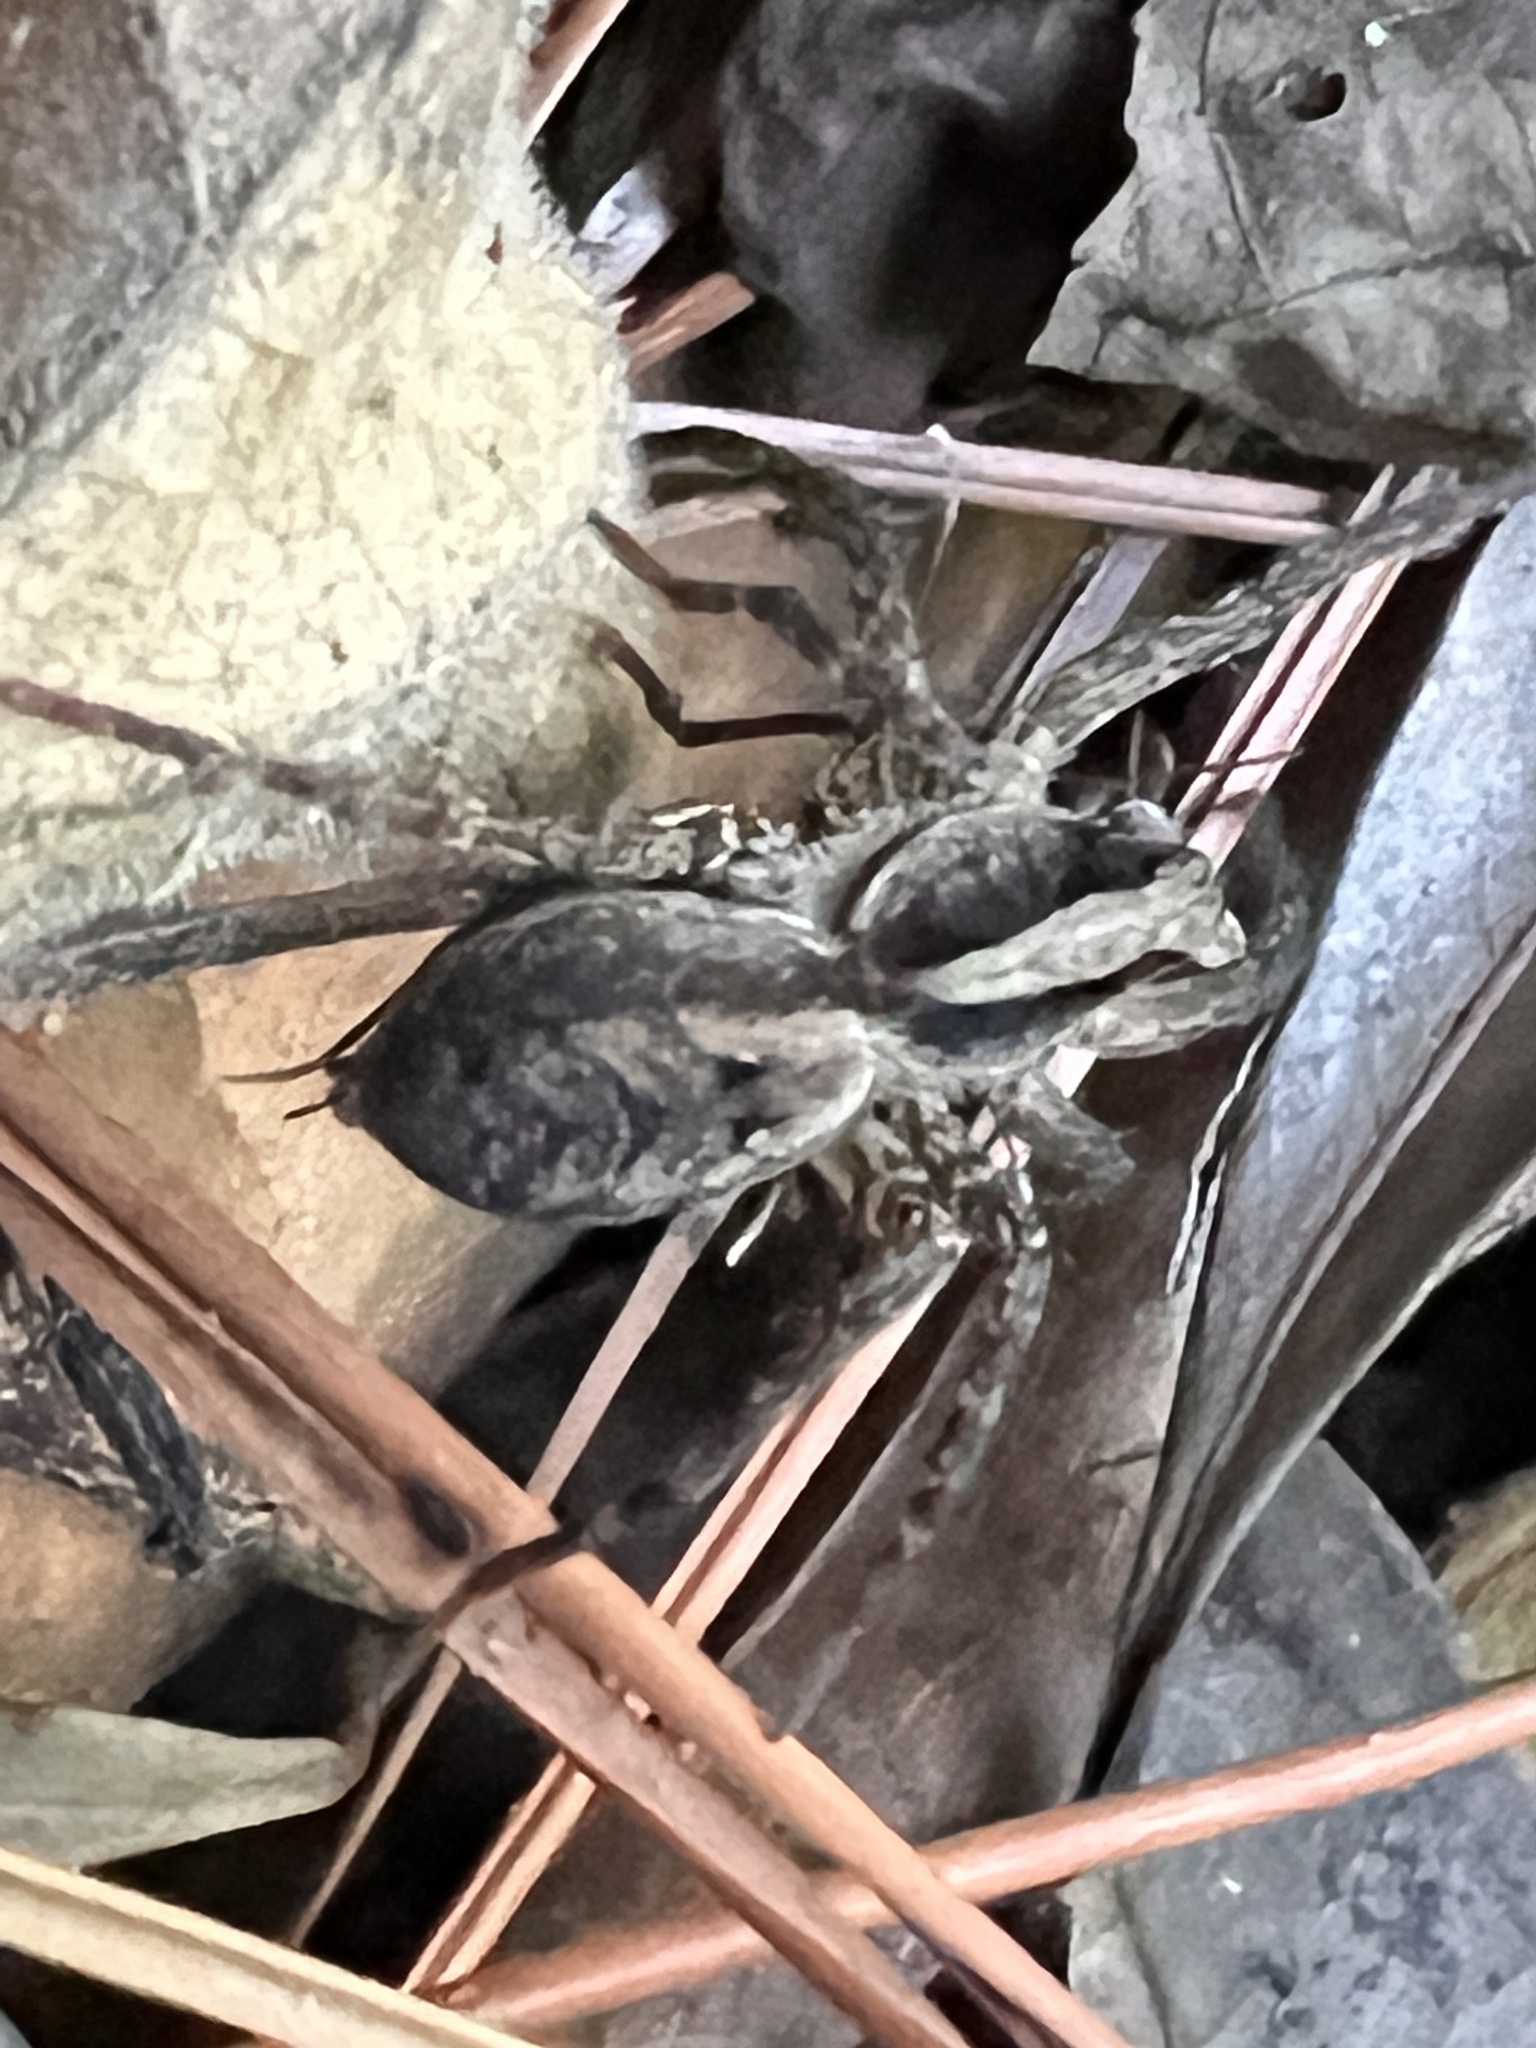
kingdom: Animalia
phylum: Arthropoda
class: Arachnida
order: Araneae
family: Lycosidae
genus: Hogna
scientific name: Hogna gumia
